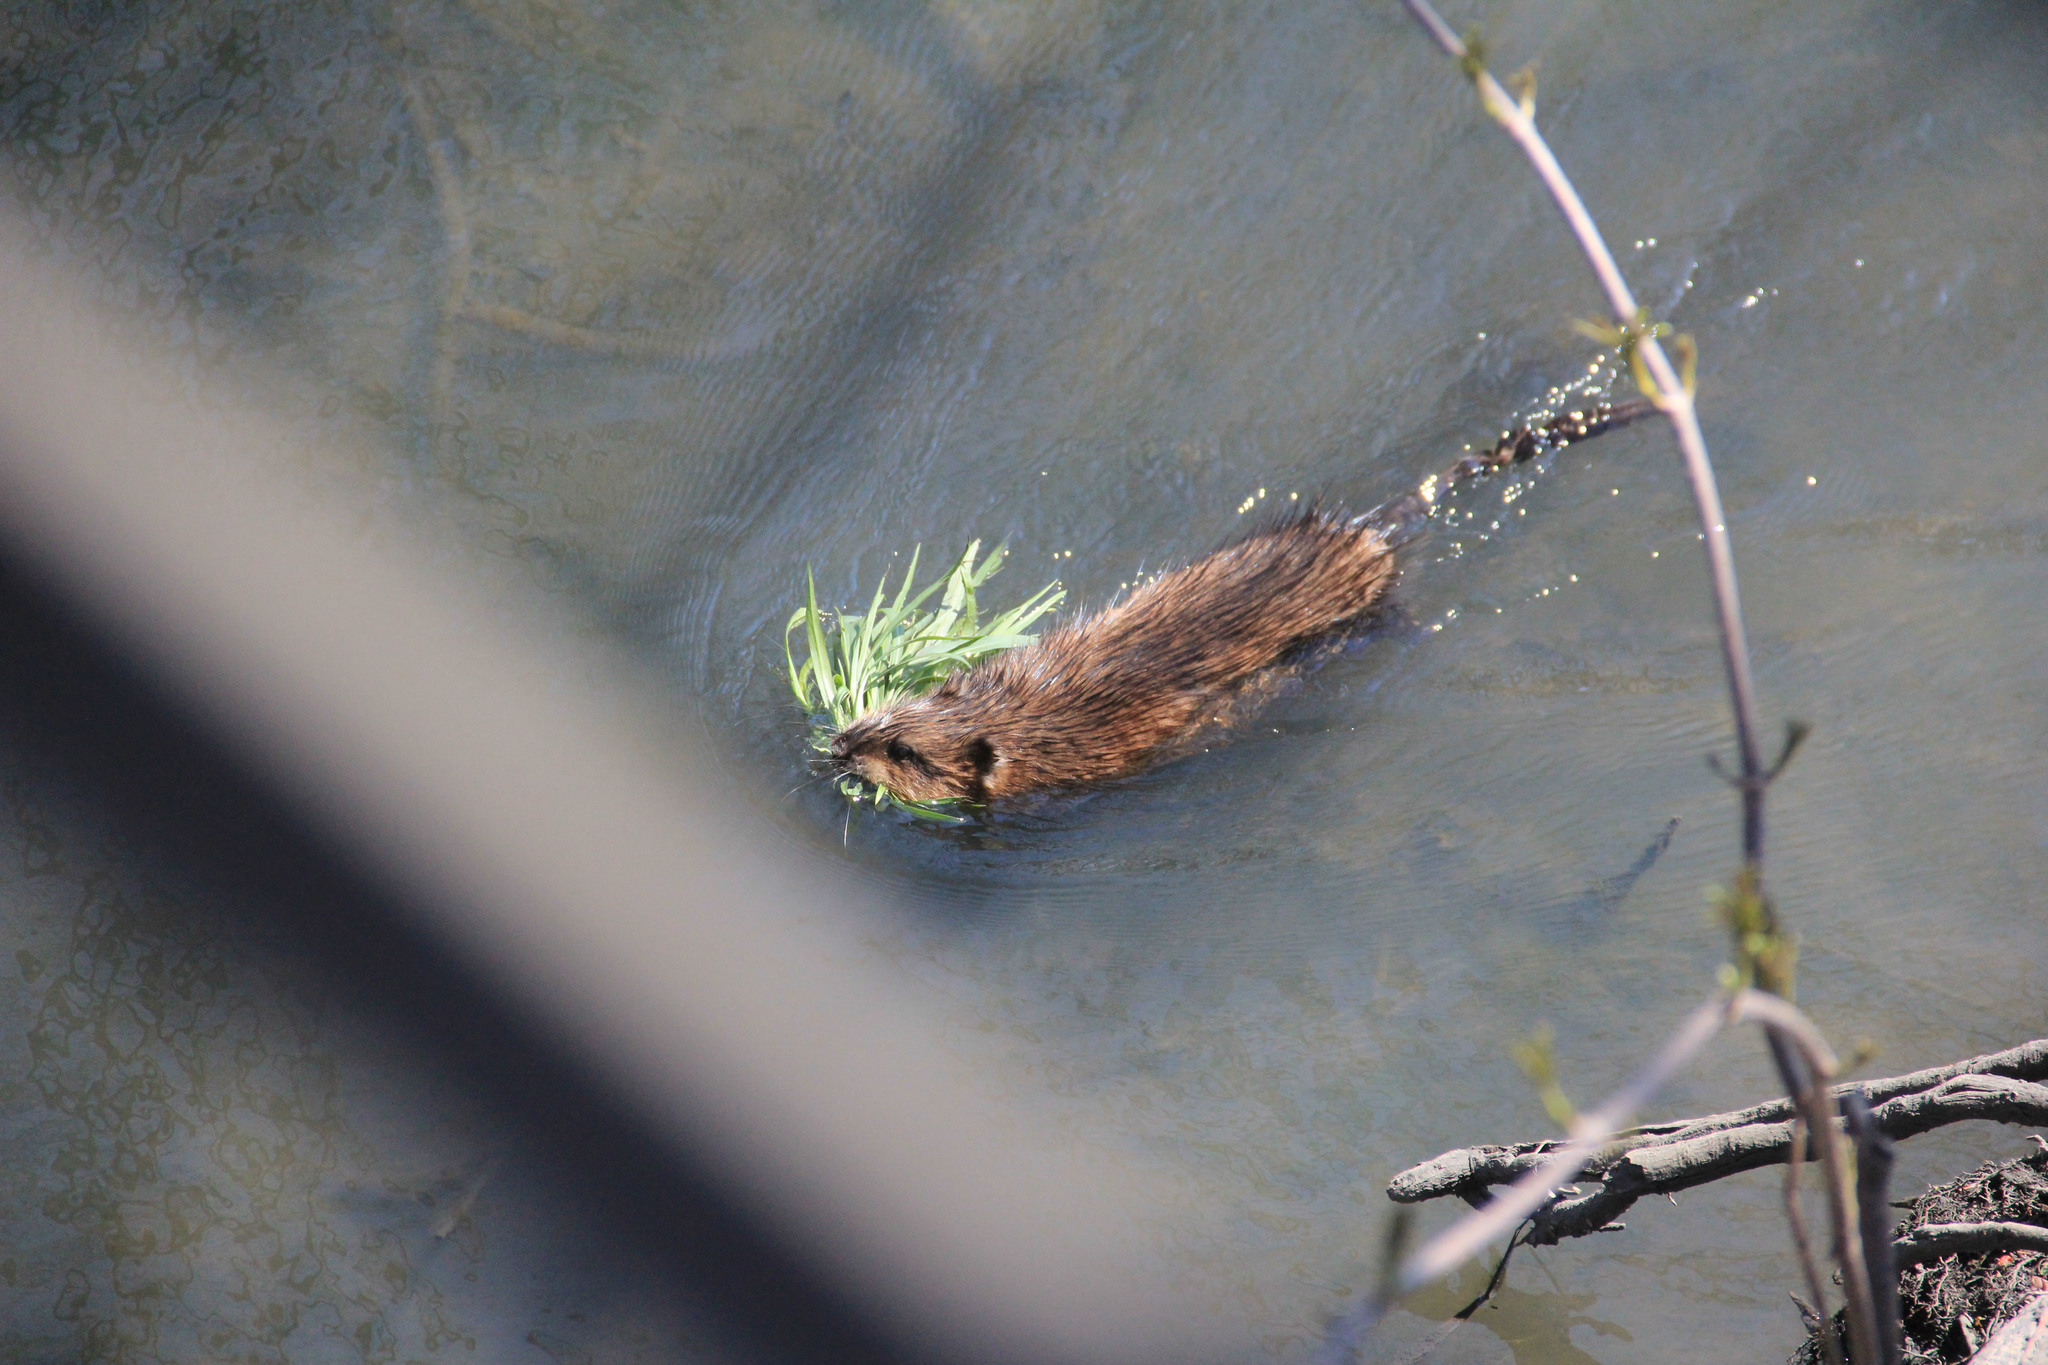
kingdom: Animalia
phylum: Chordata
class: Mammalia
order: Rodentia
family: Cricetidae
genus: Ondatra
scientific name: Ondatra zibethicus
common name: Muskrat
